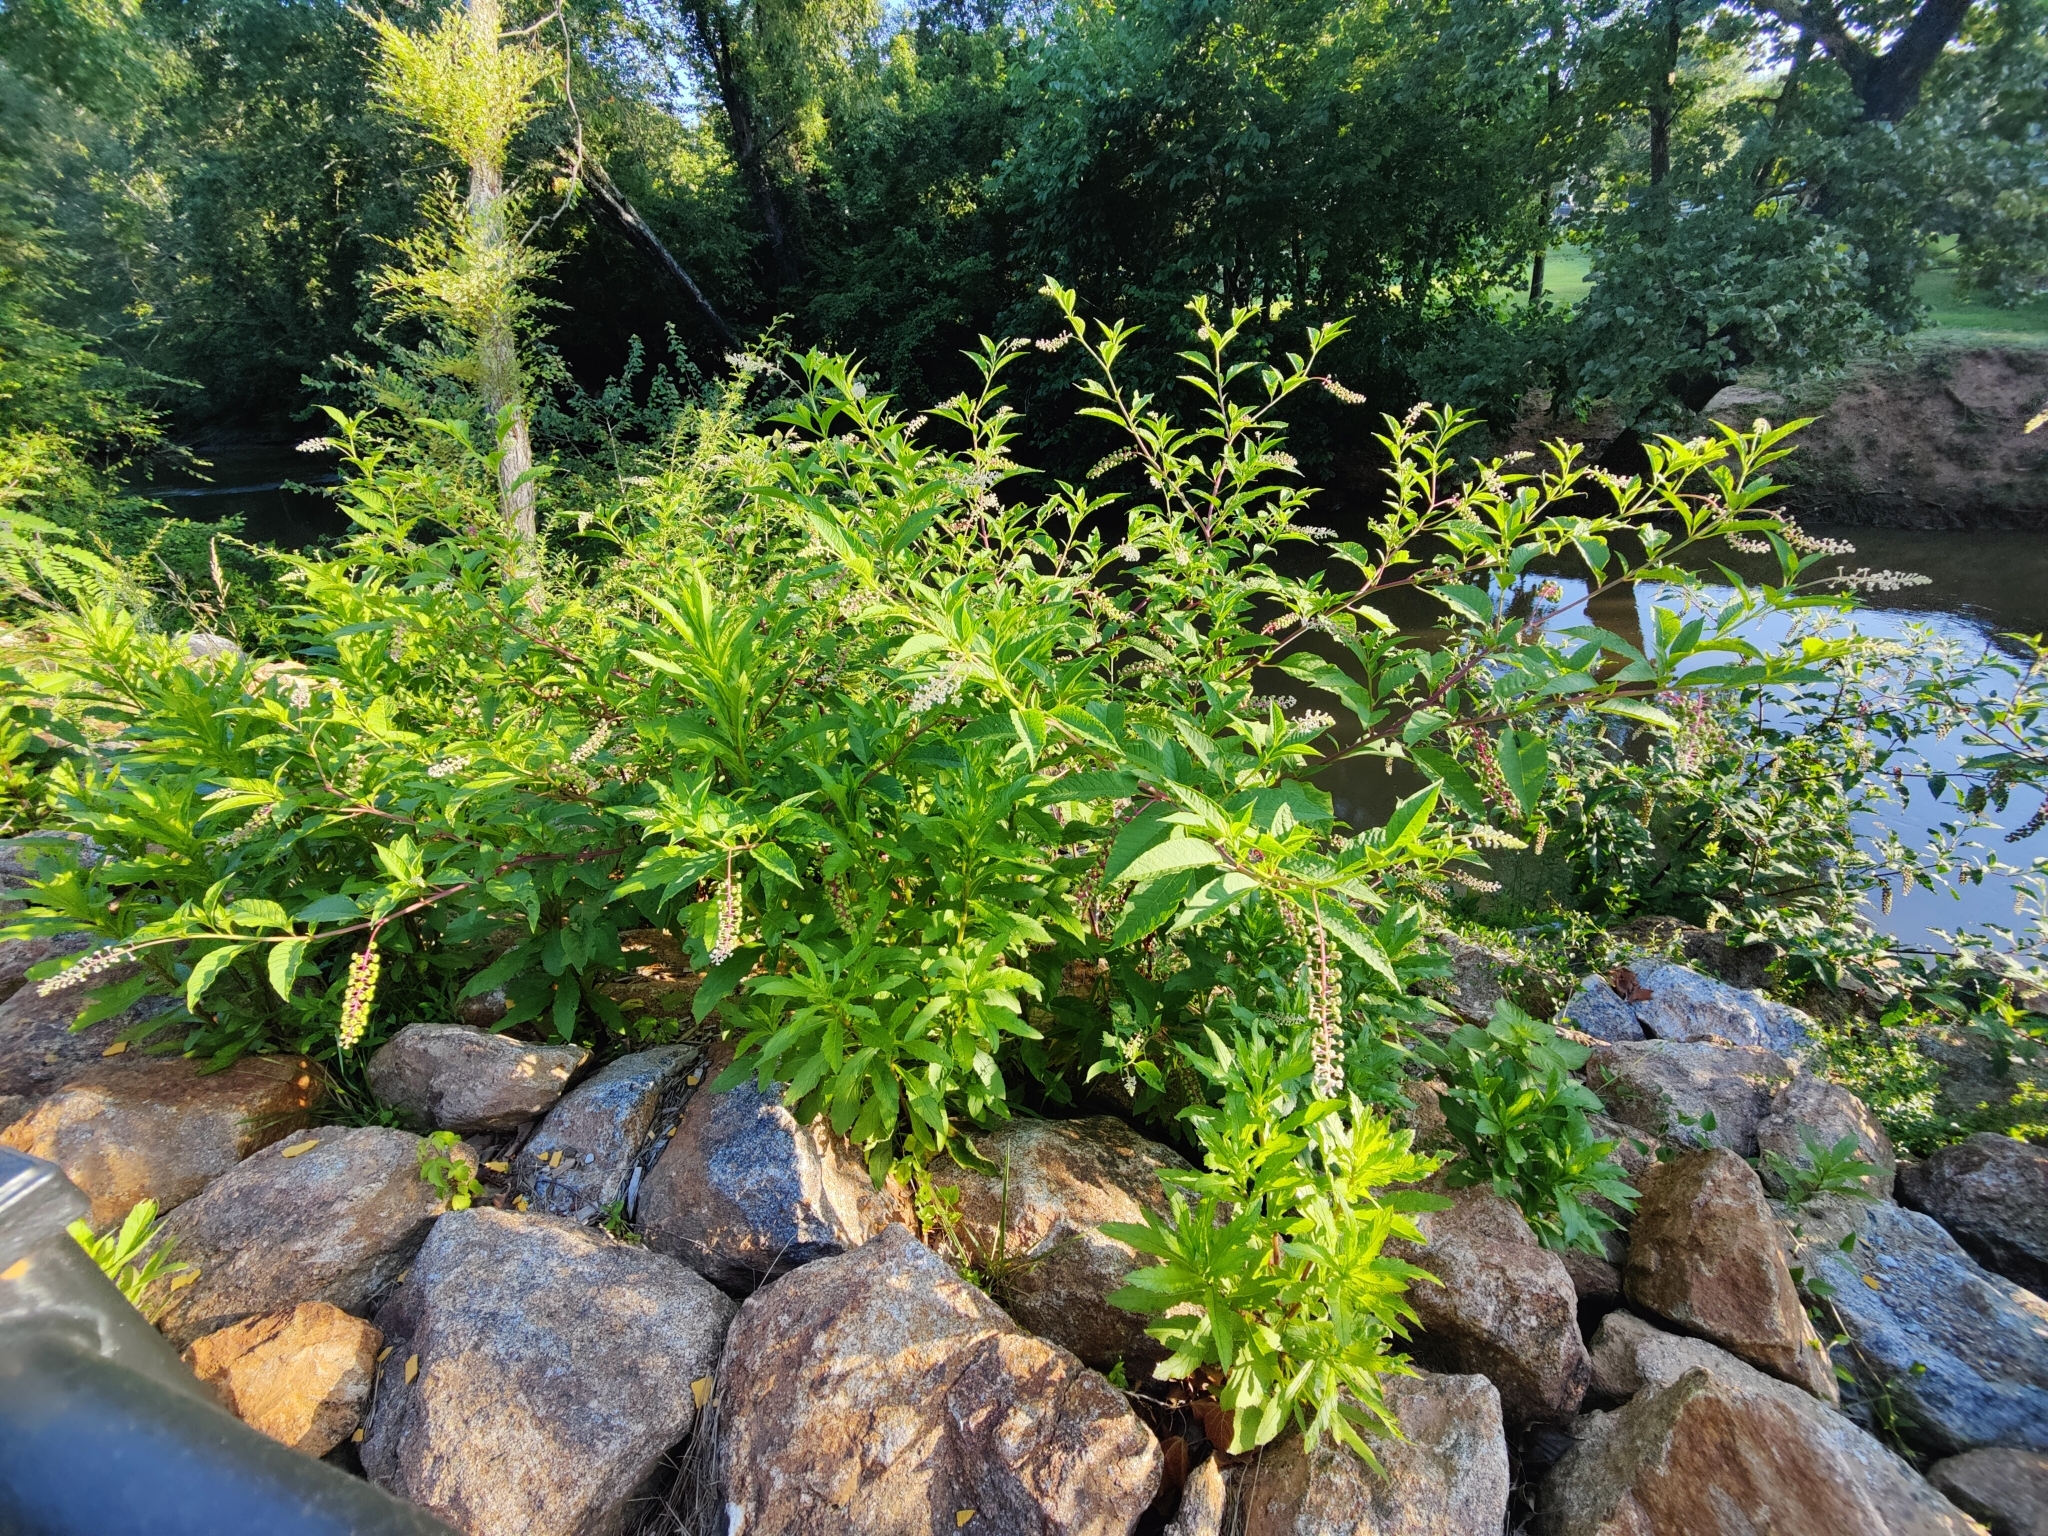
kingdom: Plantae
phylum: Tracheophyta
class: Magnoliopsida
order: Caryophyllales
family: Phytolaccaceae
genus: Phytolacca
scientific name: Phytolacca americana
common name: American pokeweed
